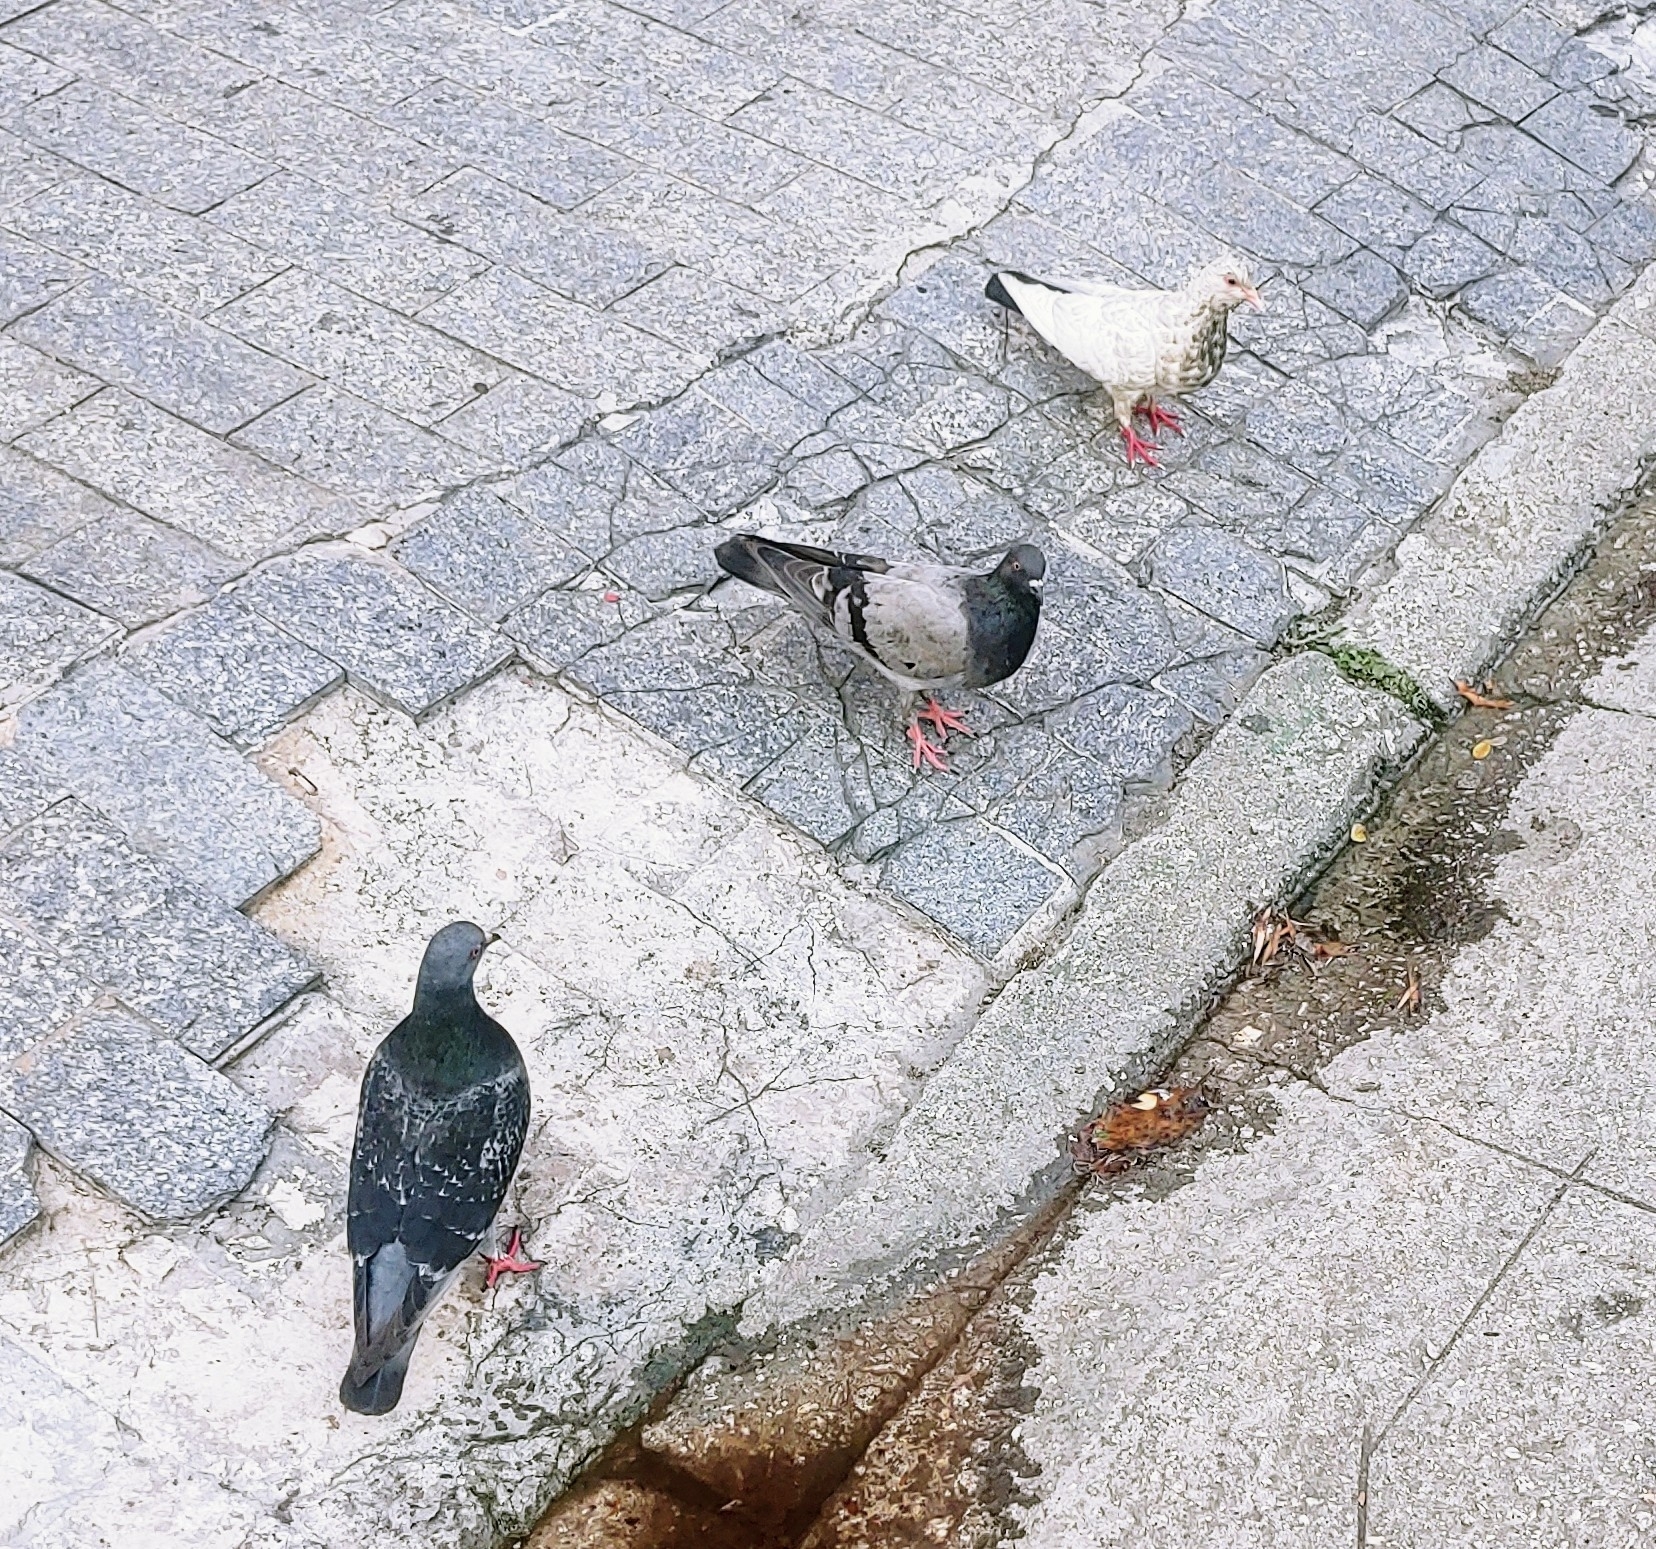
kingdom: Animalia
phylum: Chordata
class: Aves
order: Columbiformes
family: Columbidae
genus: Columba
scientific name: Columba livia
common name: Rock pigeon
